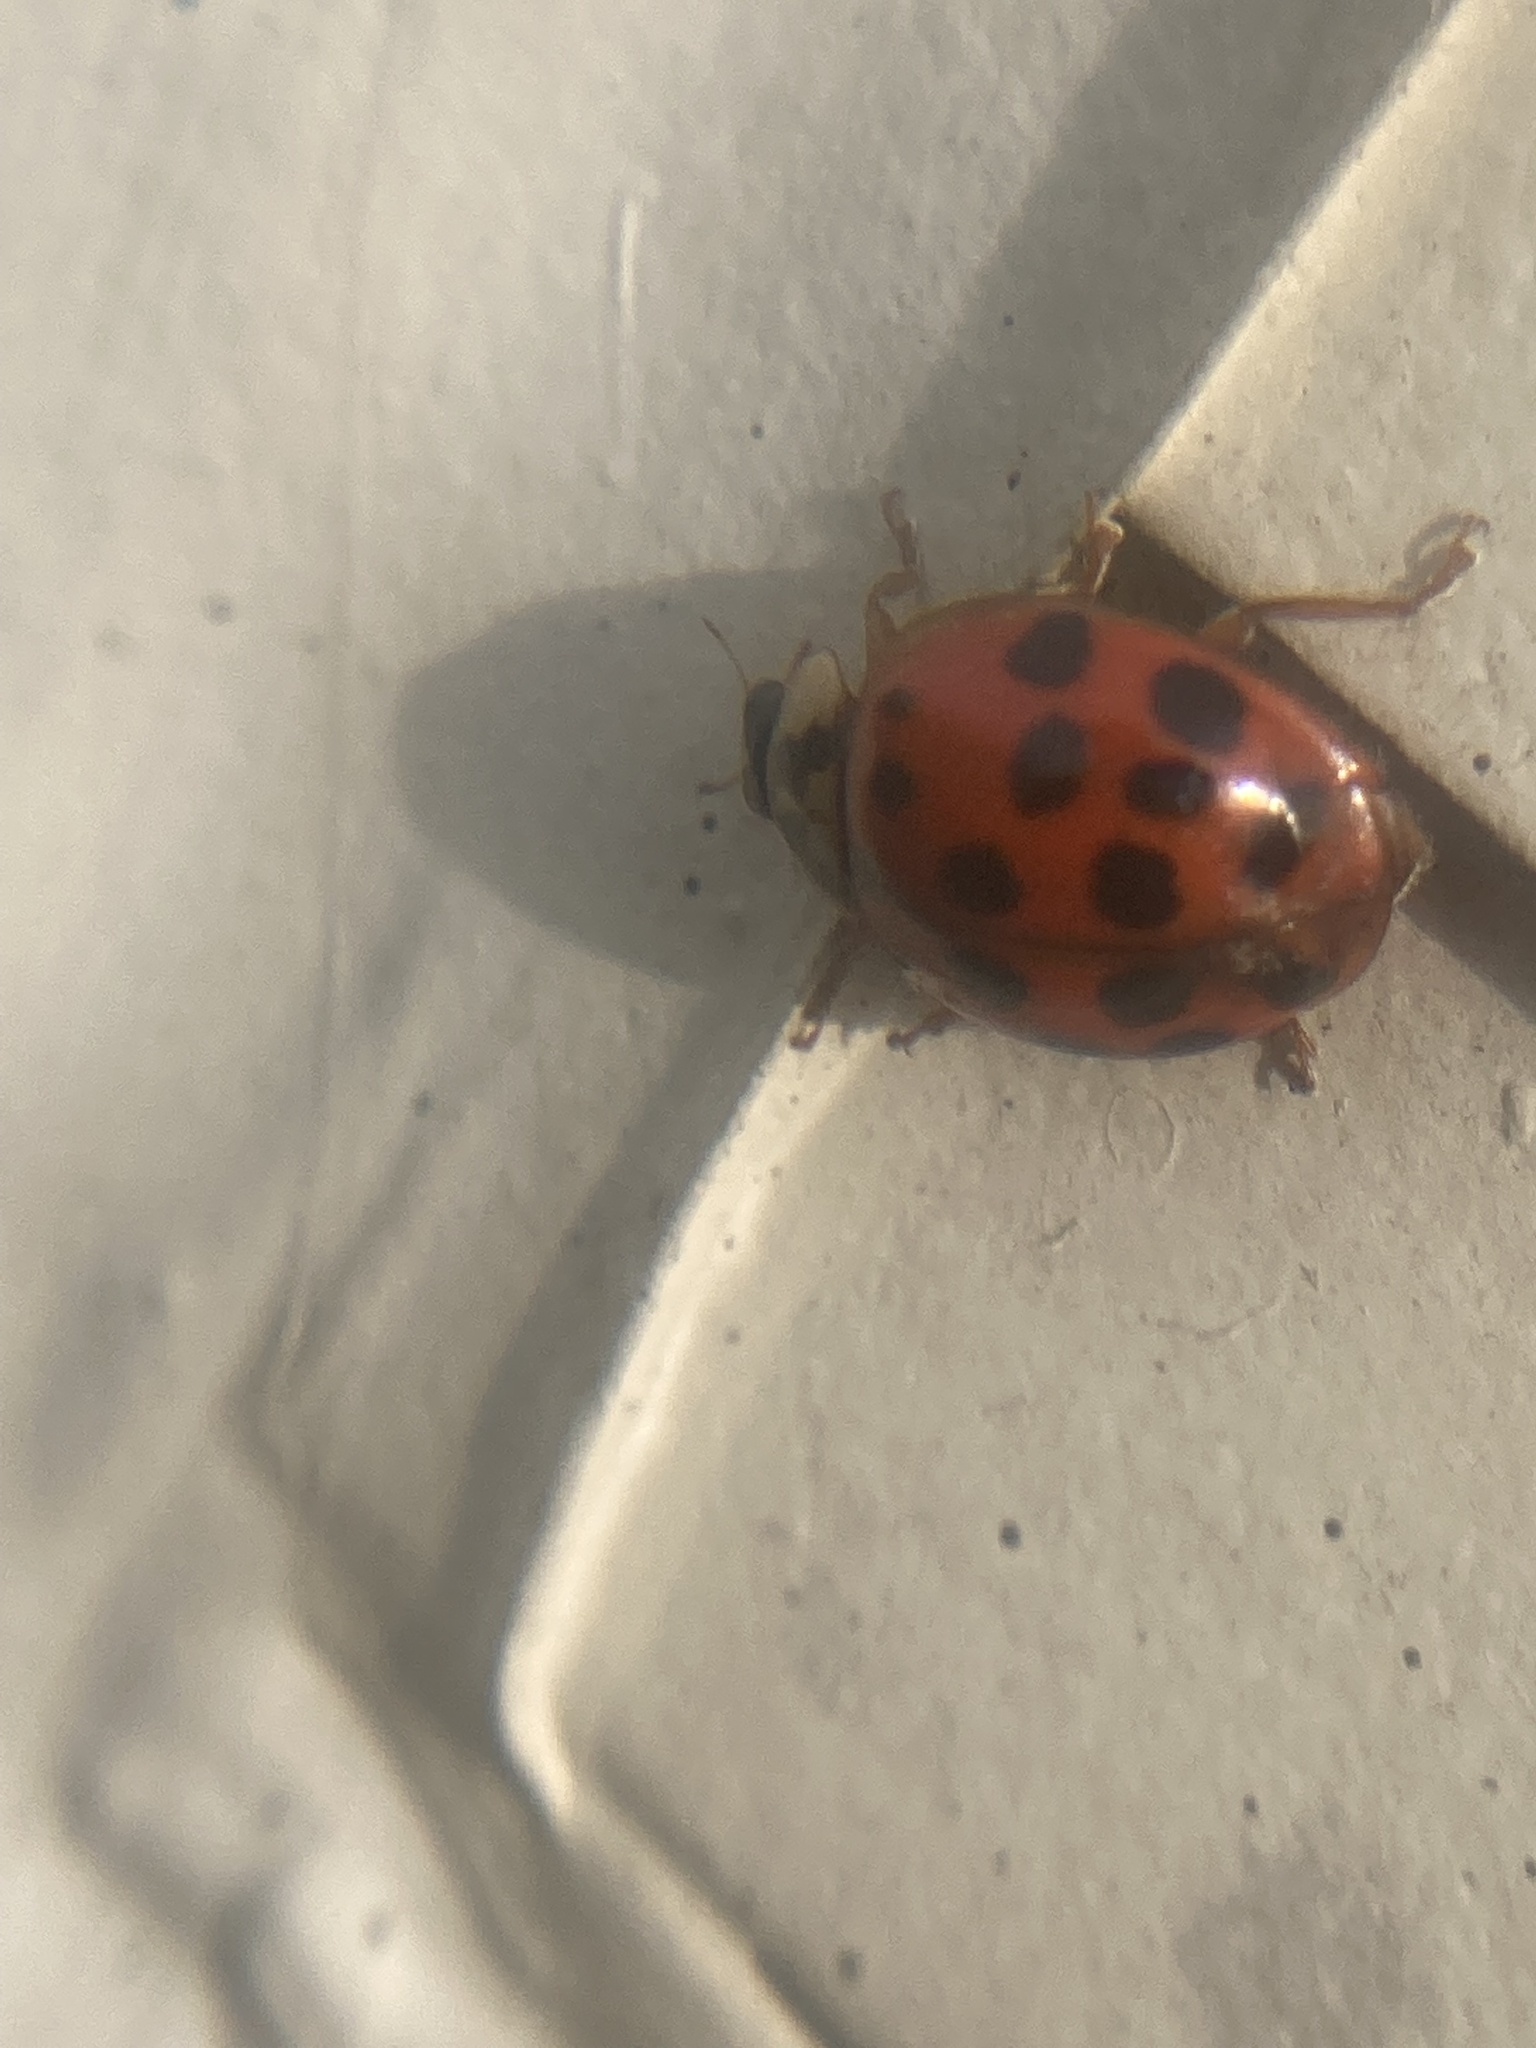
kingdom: Animalia
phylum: Arthropoda
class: Insecta
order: Coleoptera
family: Coccinellidae
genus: Harmonia
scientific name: Harmonia axyridis
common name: Harlequin ladybird
